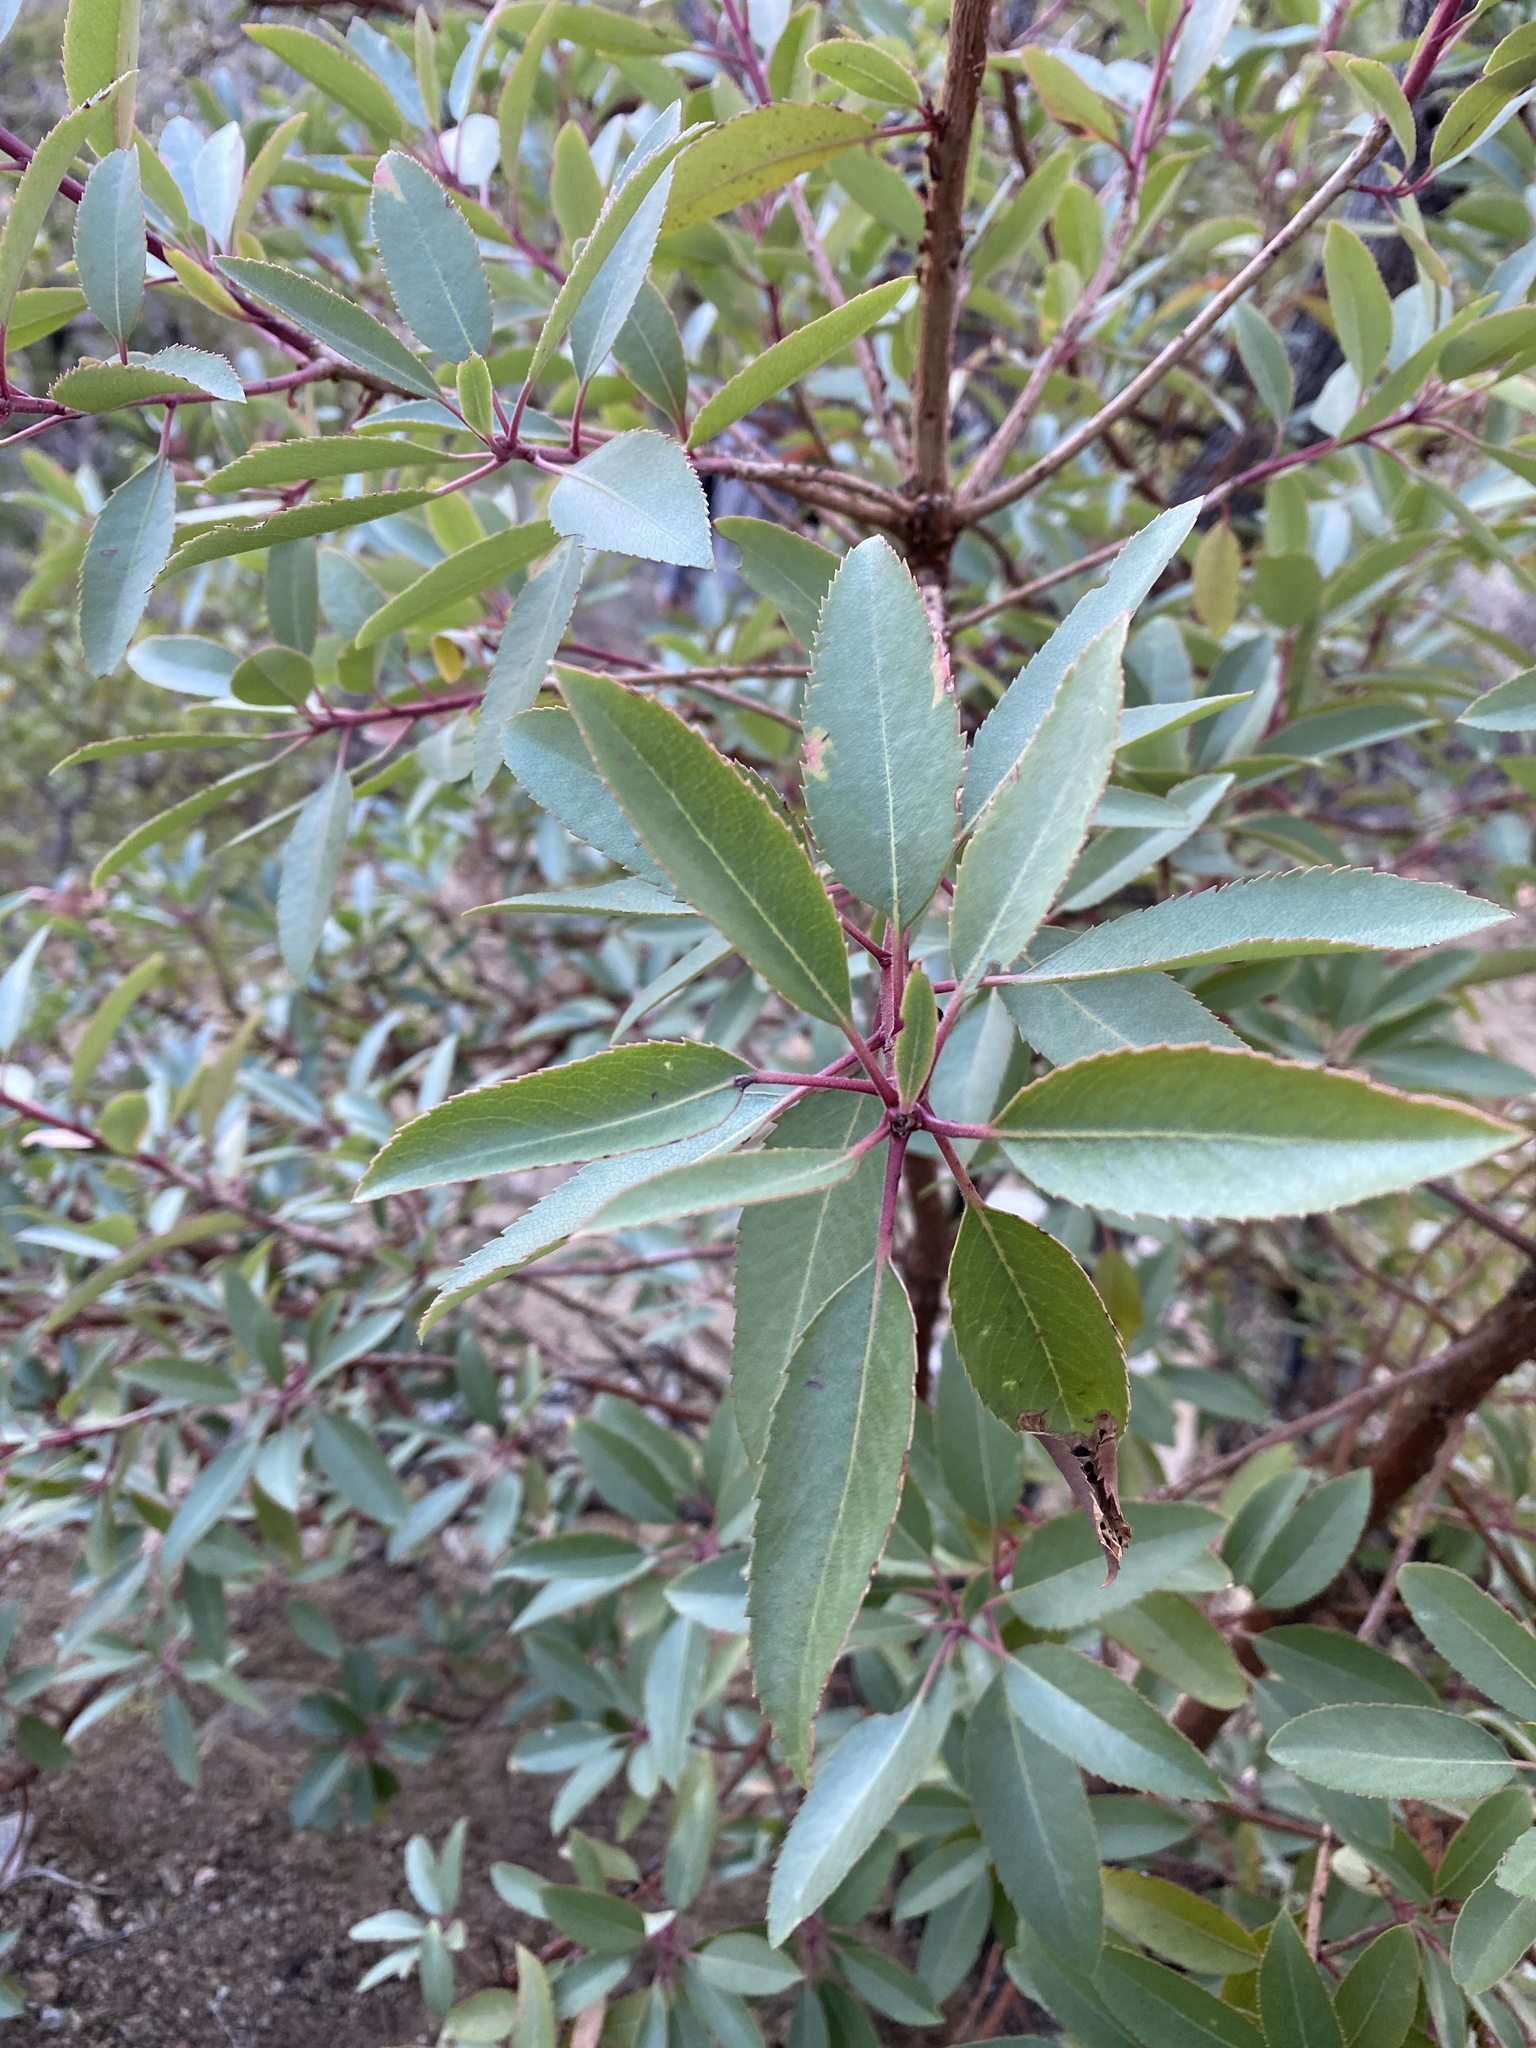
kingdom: Plantae
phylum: Tracheophyta
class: Magnoliopsida
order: Ericales
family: Ericaceae
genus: Arbutus
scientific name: Arbutus arizonica
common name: Arizona madrone
